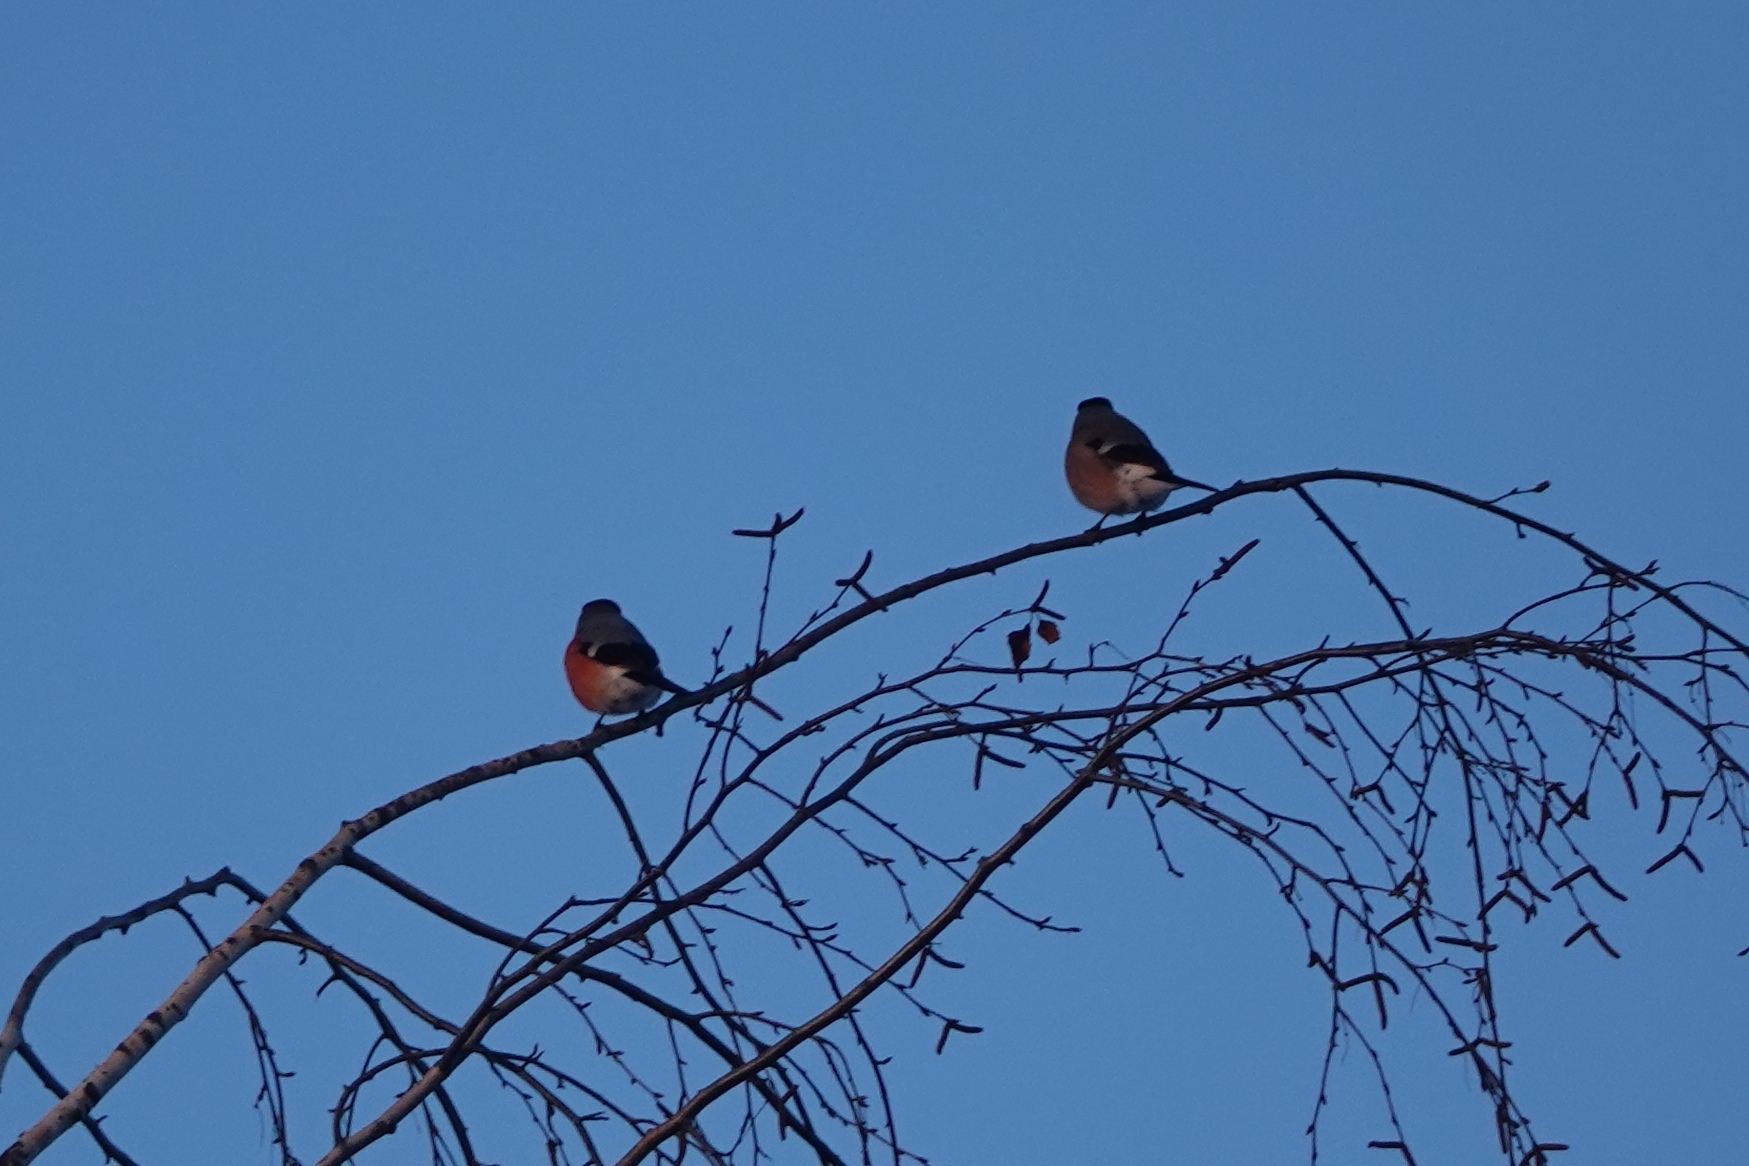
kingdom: Animalia
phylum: Chordata
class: Aves
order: Passeriformes
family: Fringillidae
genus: Pyrrhula
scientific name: Pyrrhula pyrrhula
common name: Eurasian bullfinch
